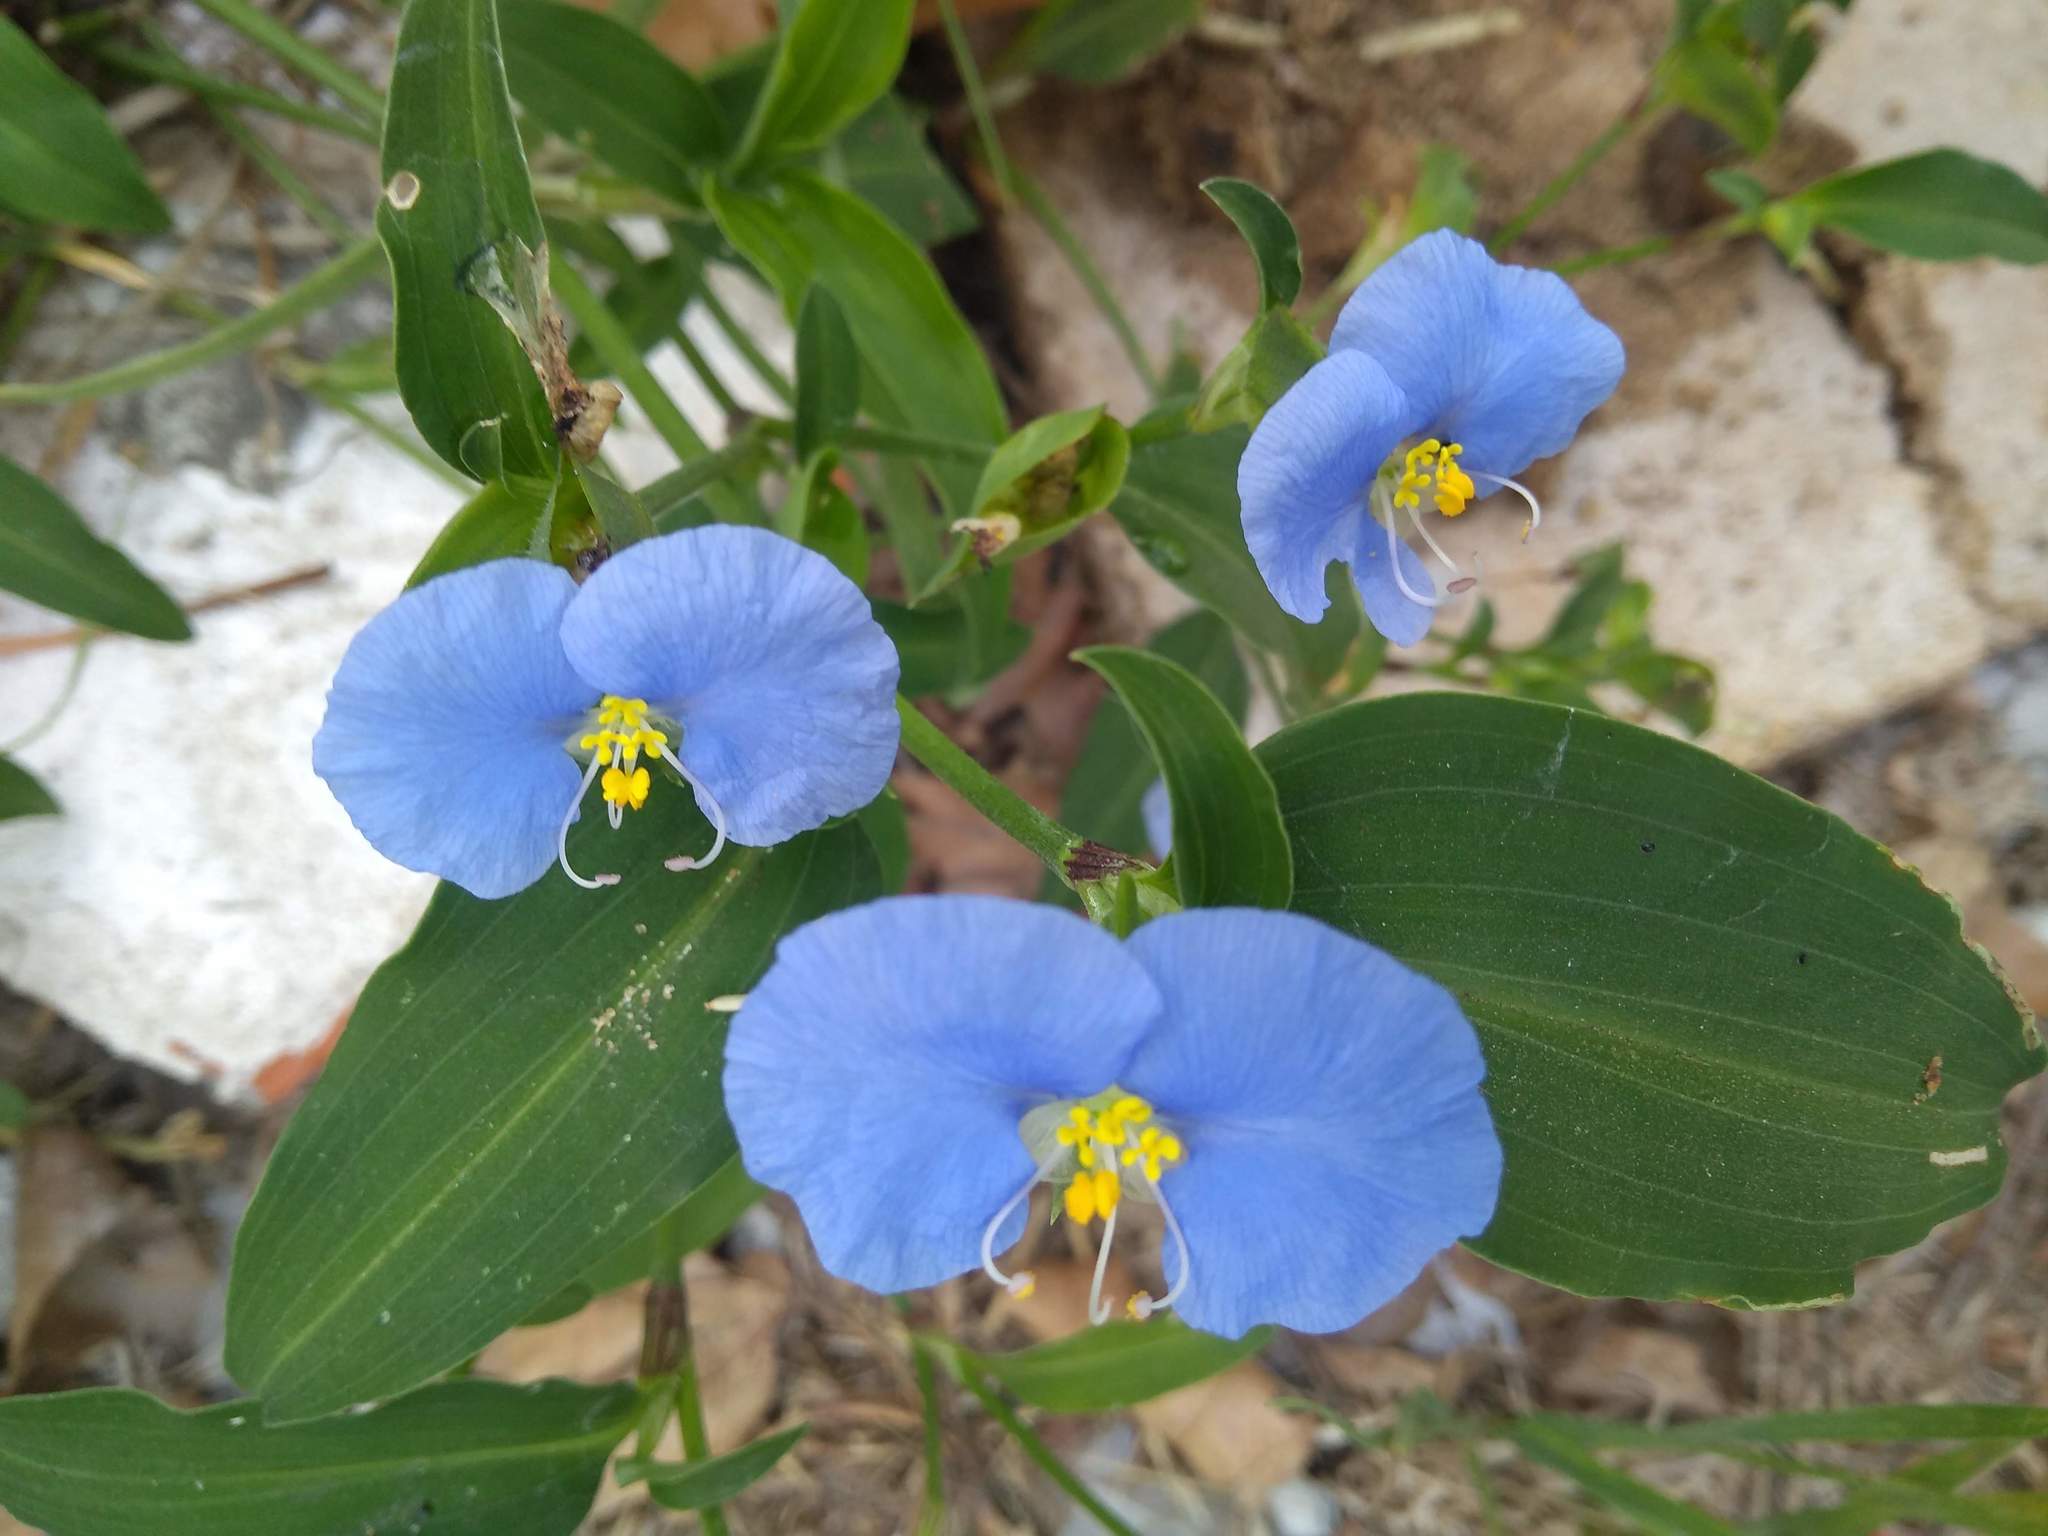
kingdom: Plantae
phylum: Tracheophyta
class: Liliopsida
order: Commelinales
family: Commelinaceae
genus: Commelina
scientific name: Commelina erecta
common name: Blousel blommetjie
